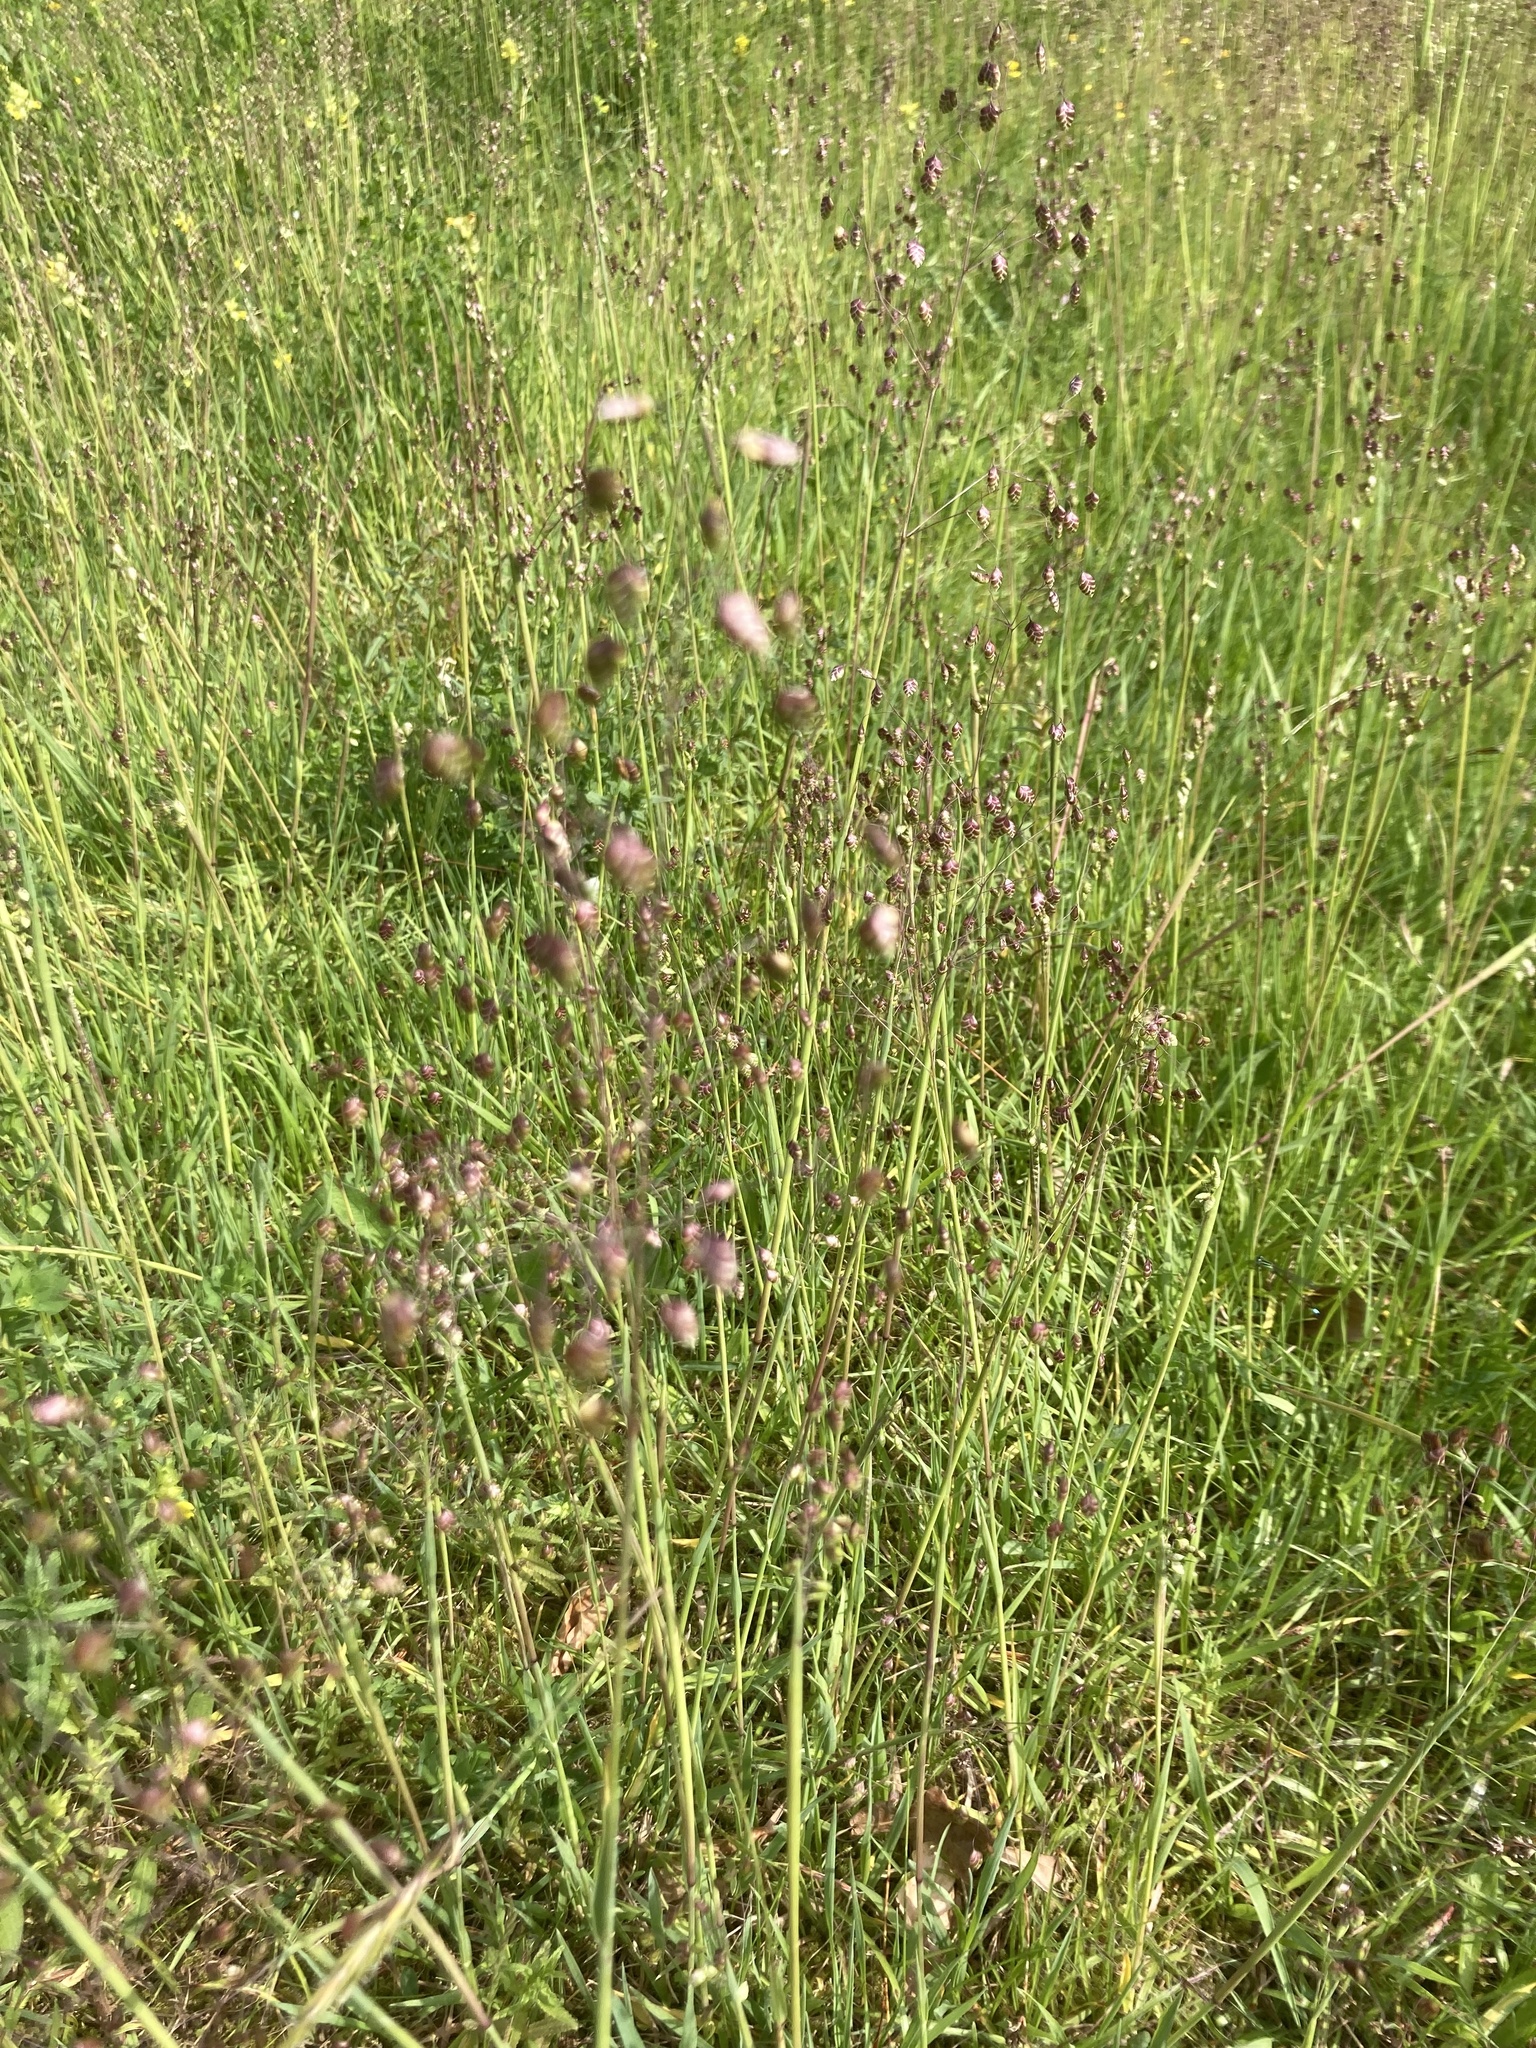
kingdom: Plantae
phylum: Tracheophyta
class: Liliopsida
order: Poales
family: Poaceae
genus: Briza
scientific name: Briza media
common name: Quaking grass
